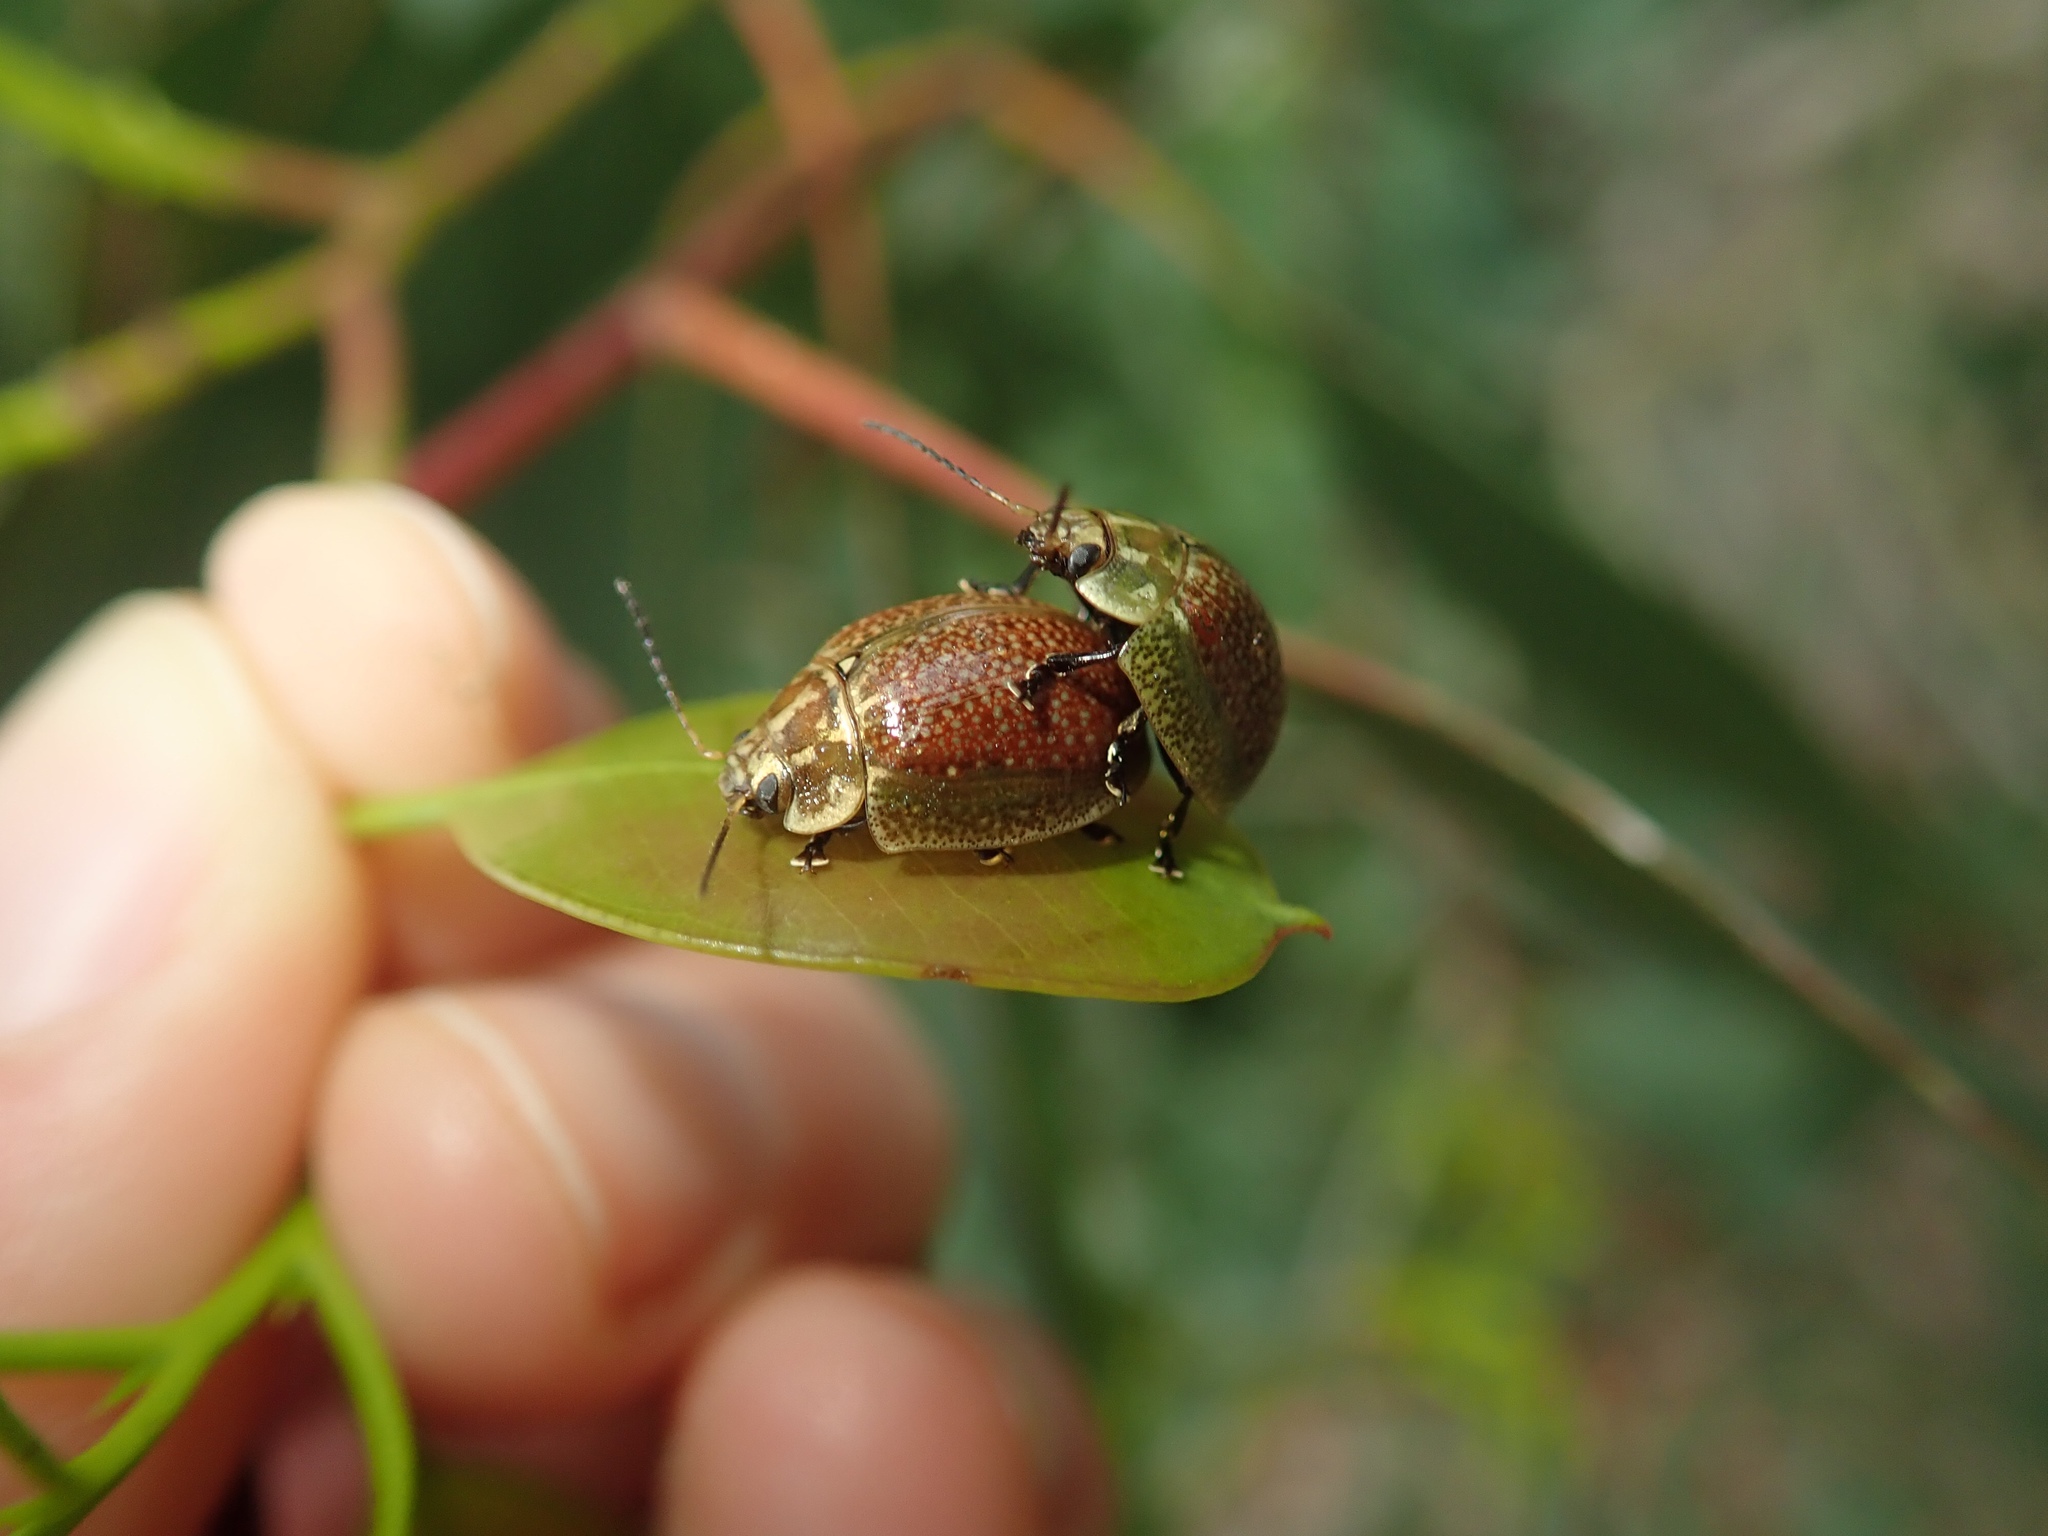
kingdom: Animalia
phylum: Arthropoda
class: Insecta
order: Coleoptera
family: Chrysomelidae
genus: Paropsisterna
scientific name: Paropsisterna cloelia
